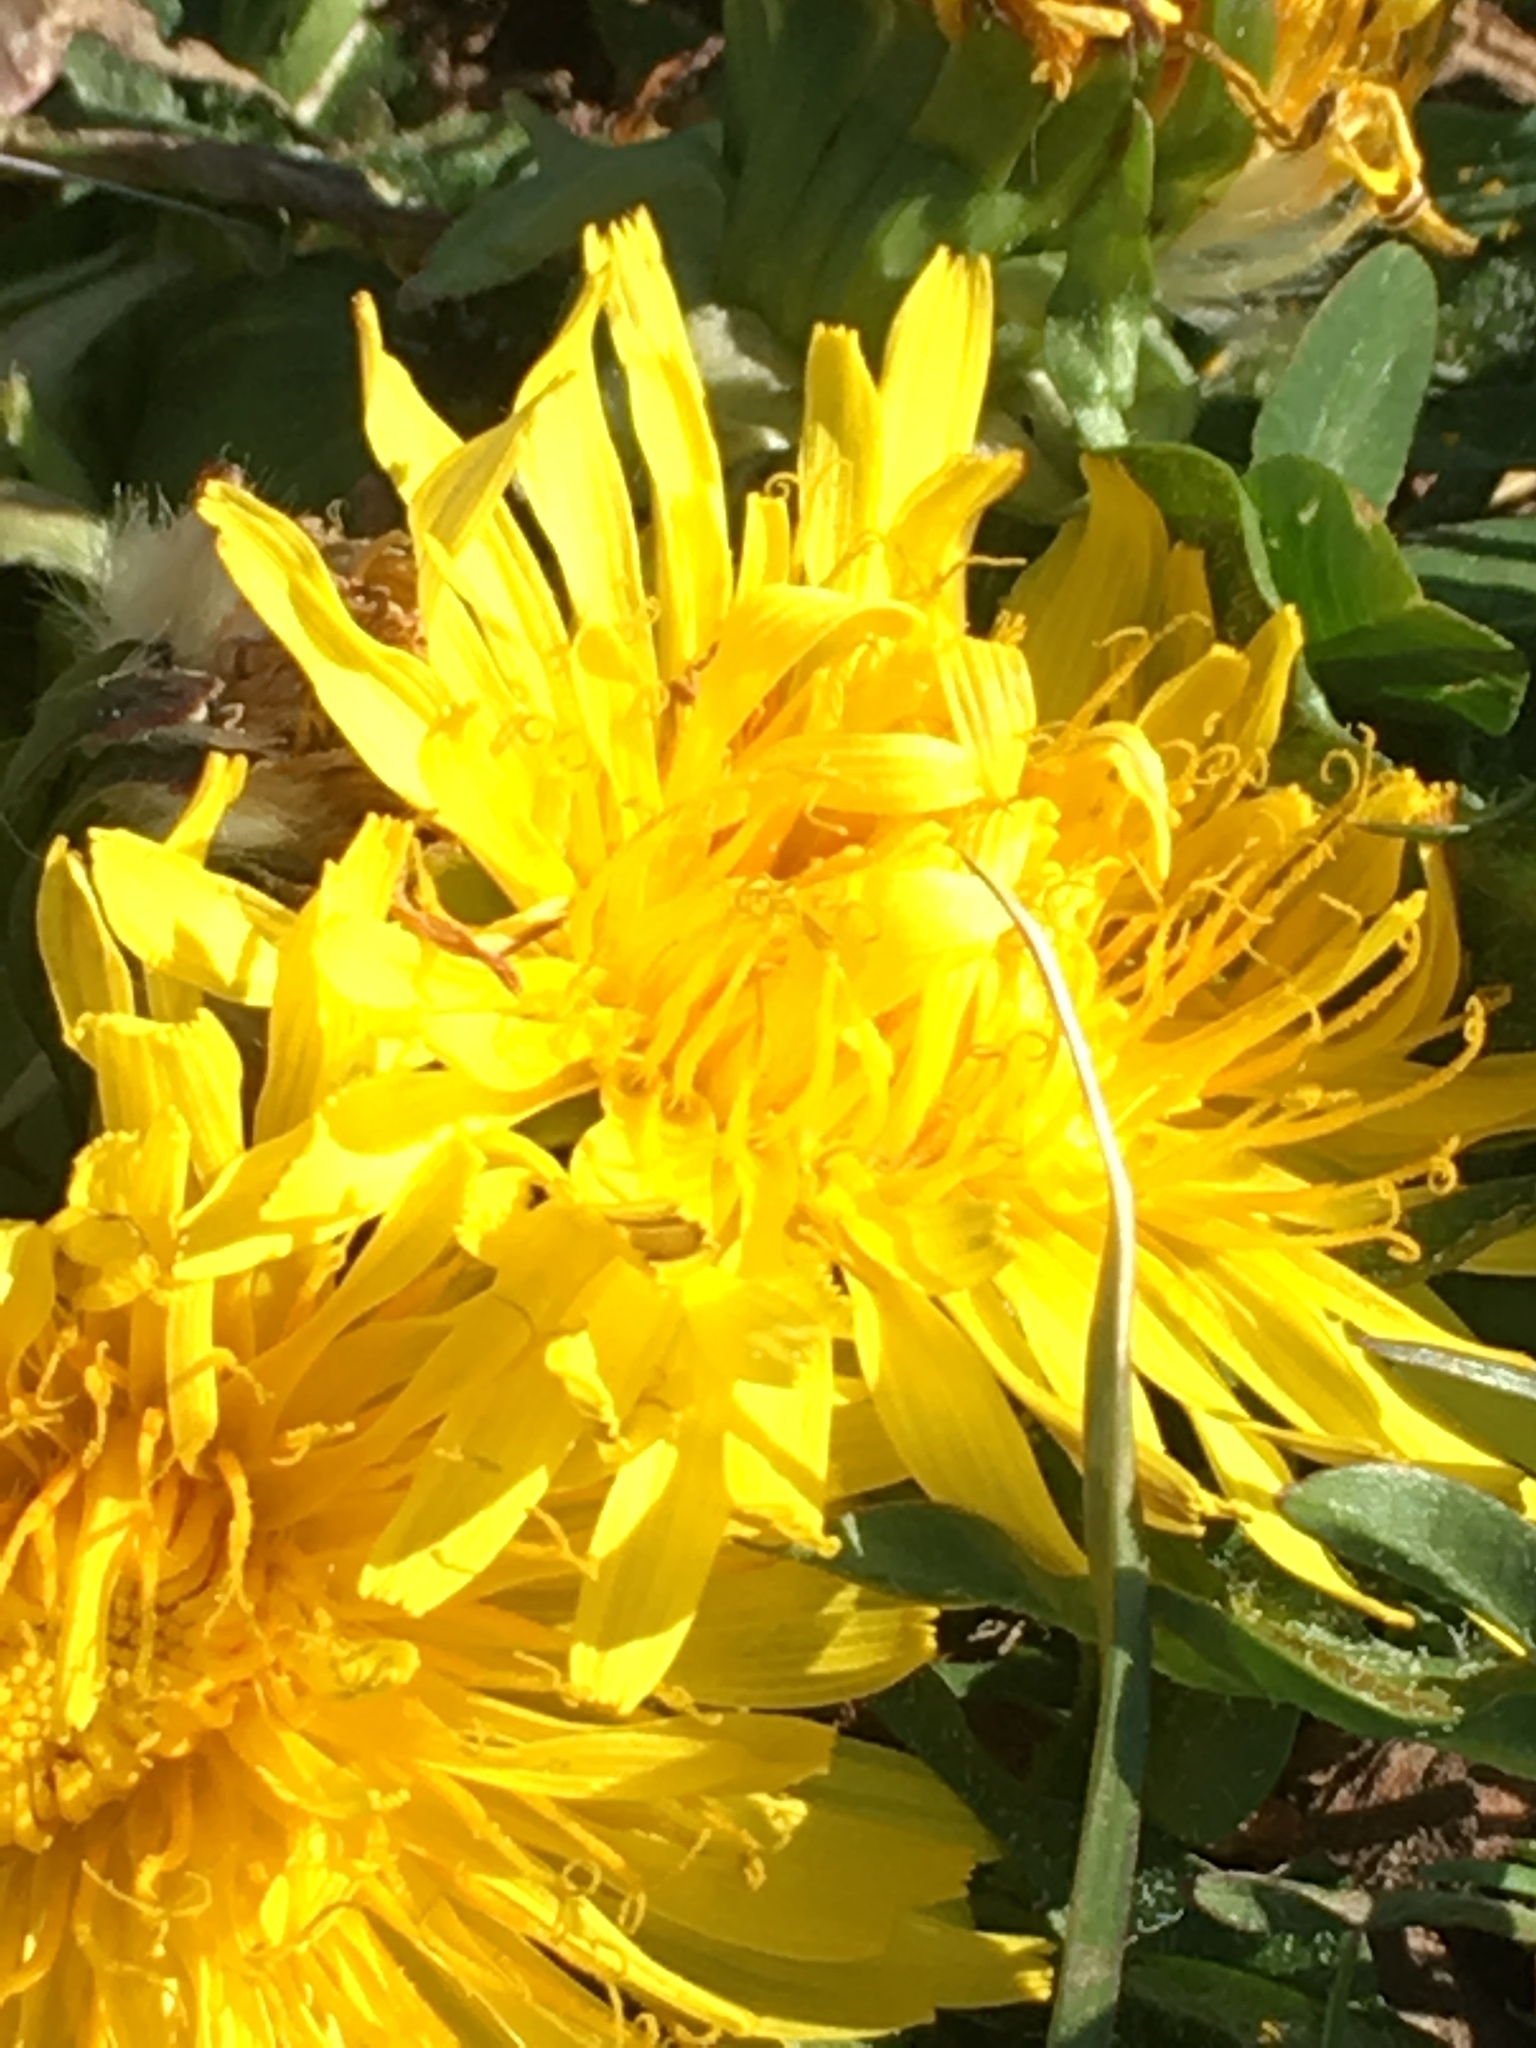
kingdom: Plantae
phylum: Tracheophyta
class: Magnoliopsida
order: Asterales
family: Asteraceae
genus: Taraxacum
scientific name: Taraxacum officinale
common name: Common dandelion
